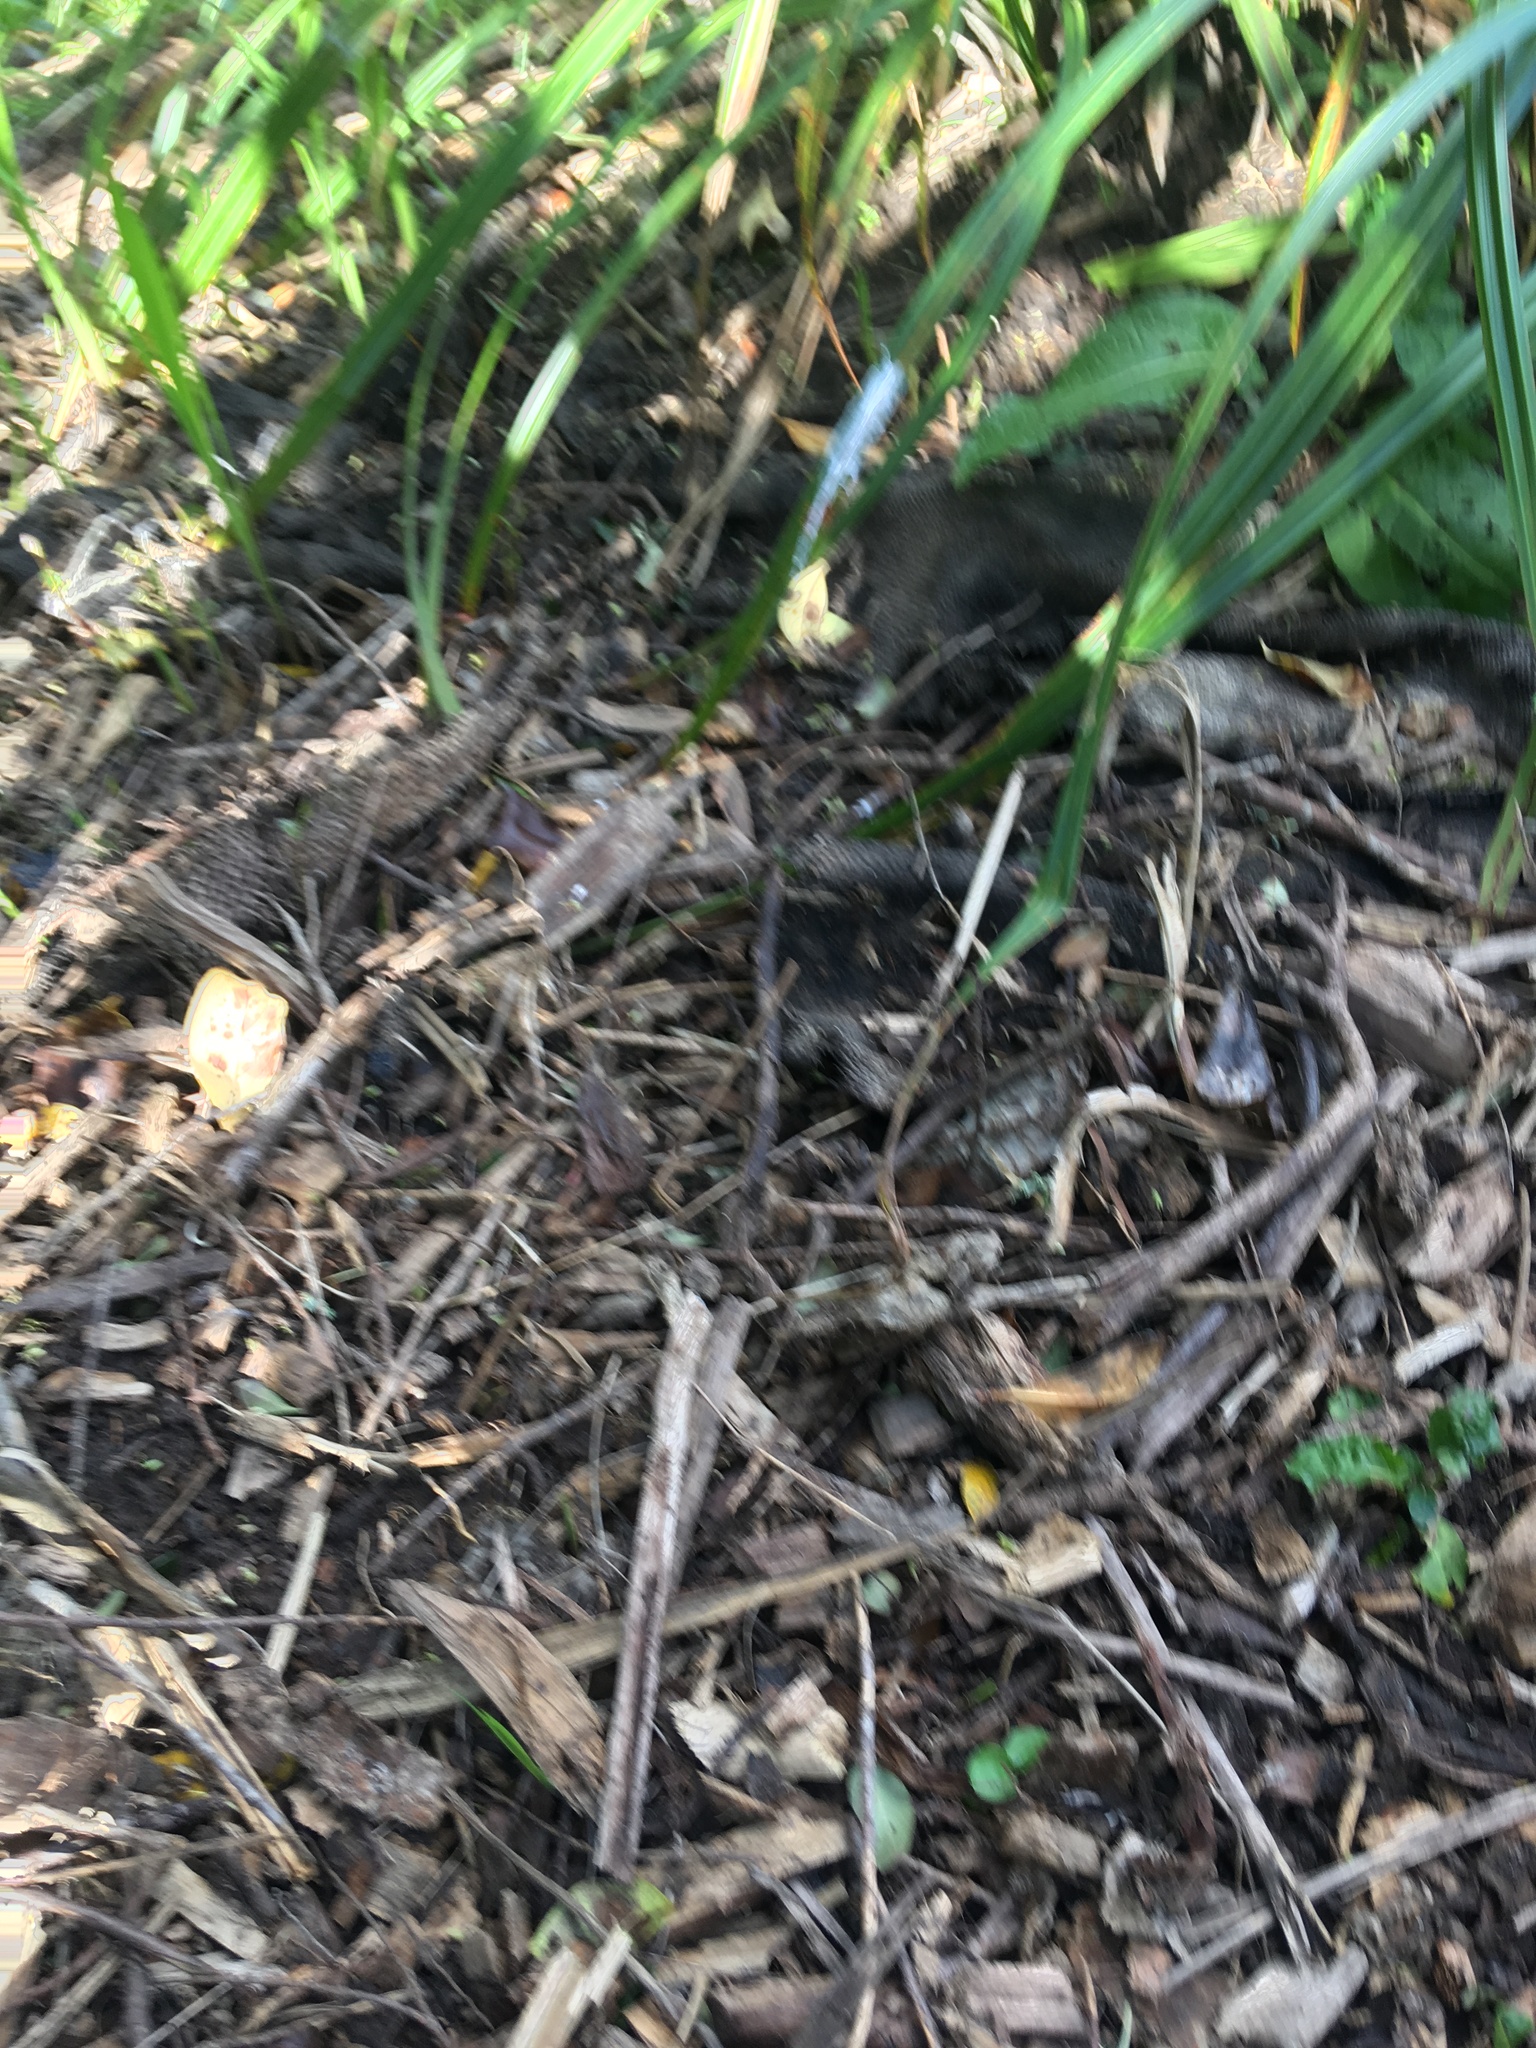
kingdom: Plantae
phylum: Tracheophyta
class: Magnoliopsida
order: Lamiales
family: Oleaceae
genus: Ligustrum
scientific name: Ligustrum sinense
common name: Chinese privet
